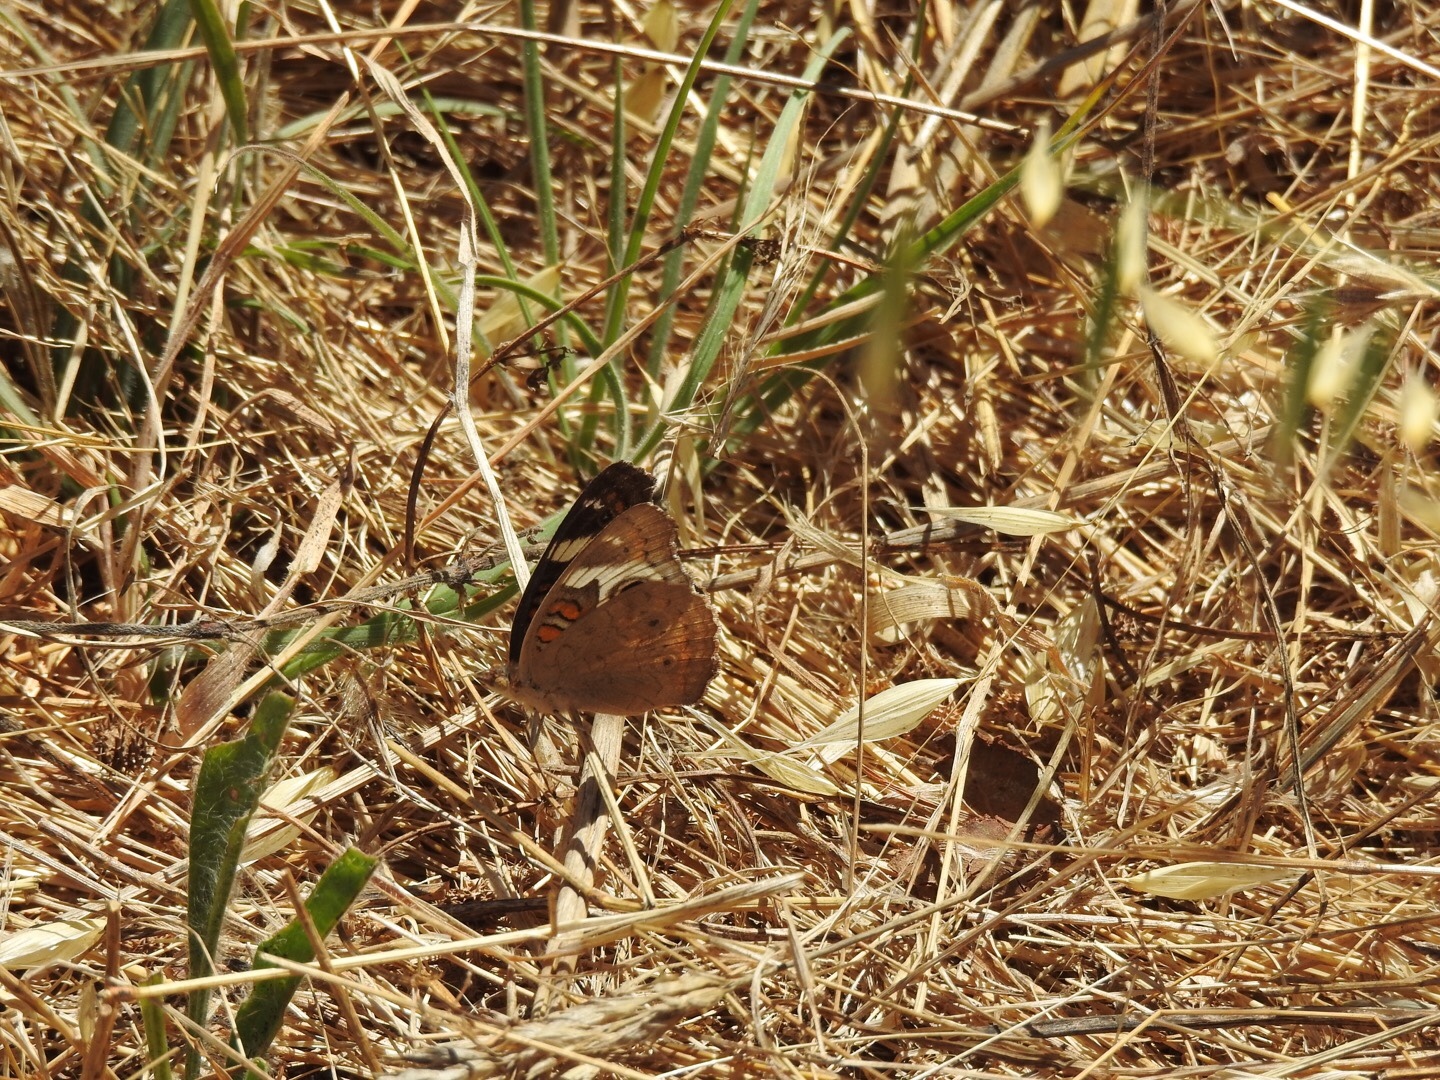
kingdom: Animalia
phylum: Arthropoda
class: Insecta
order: Lepidoptera
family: Nymphalidae
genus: Junonia
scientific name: Junonia grisea
